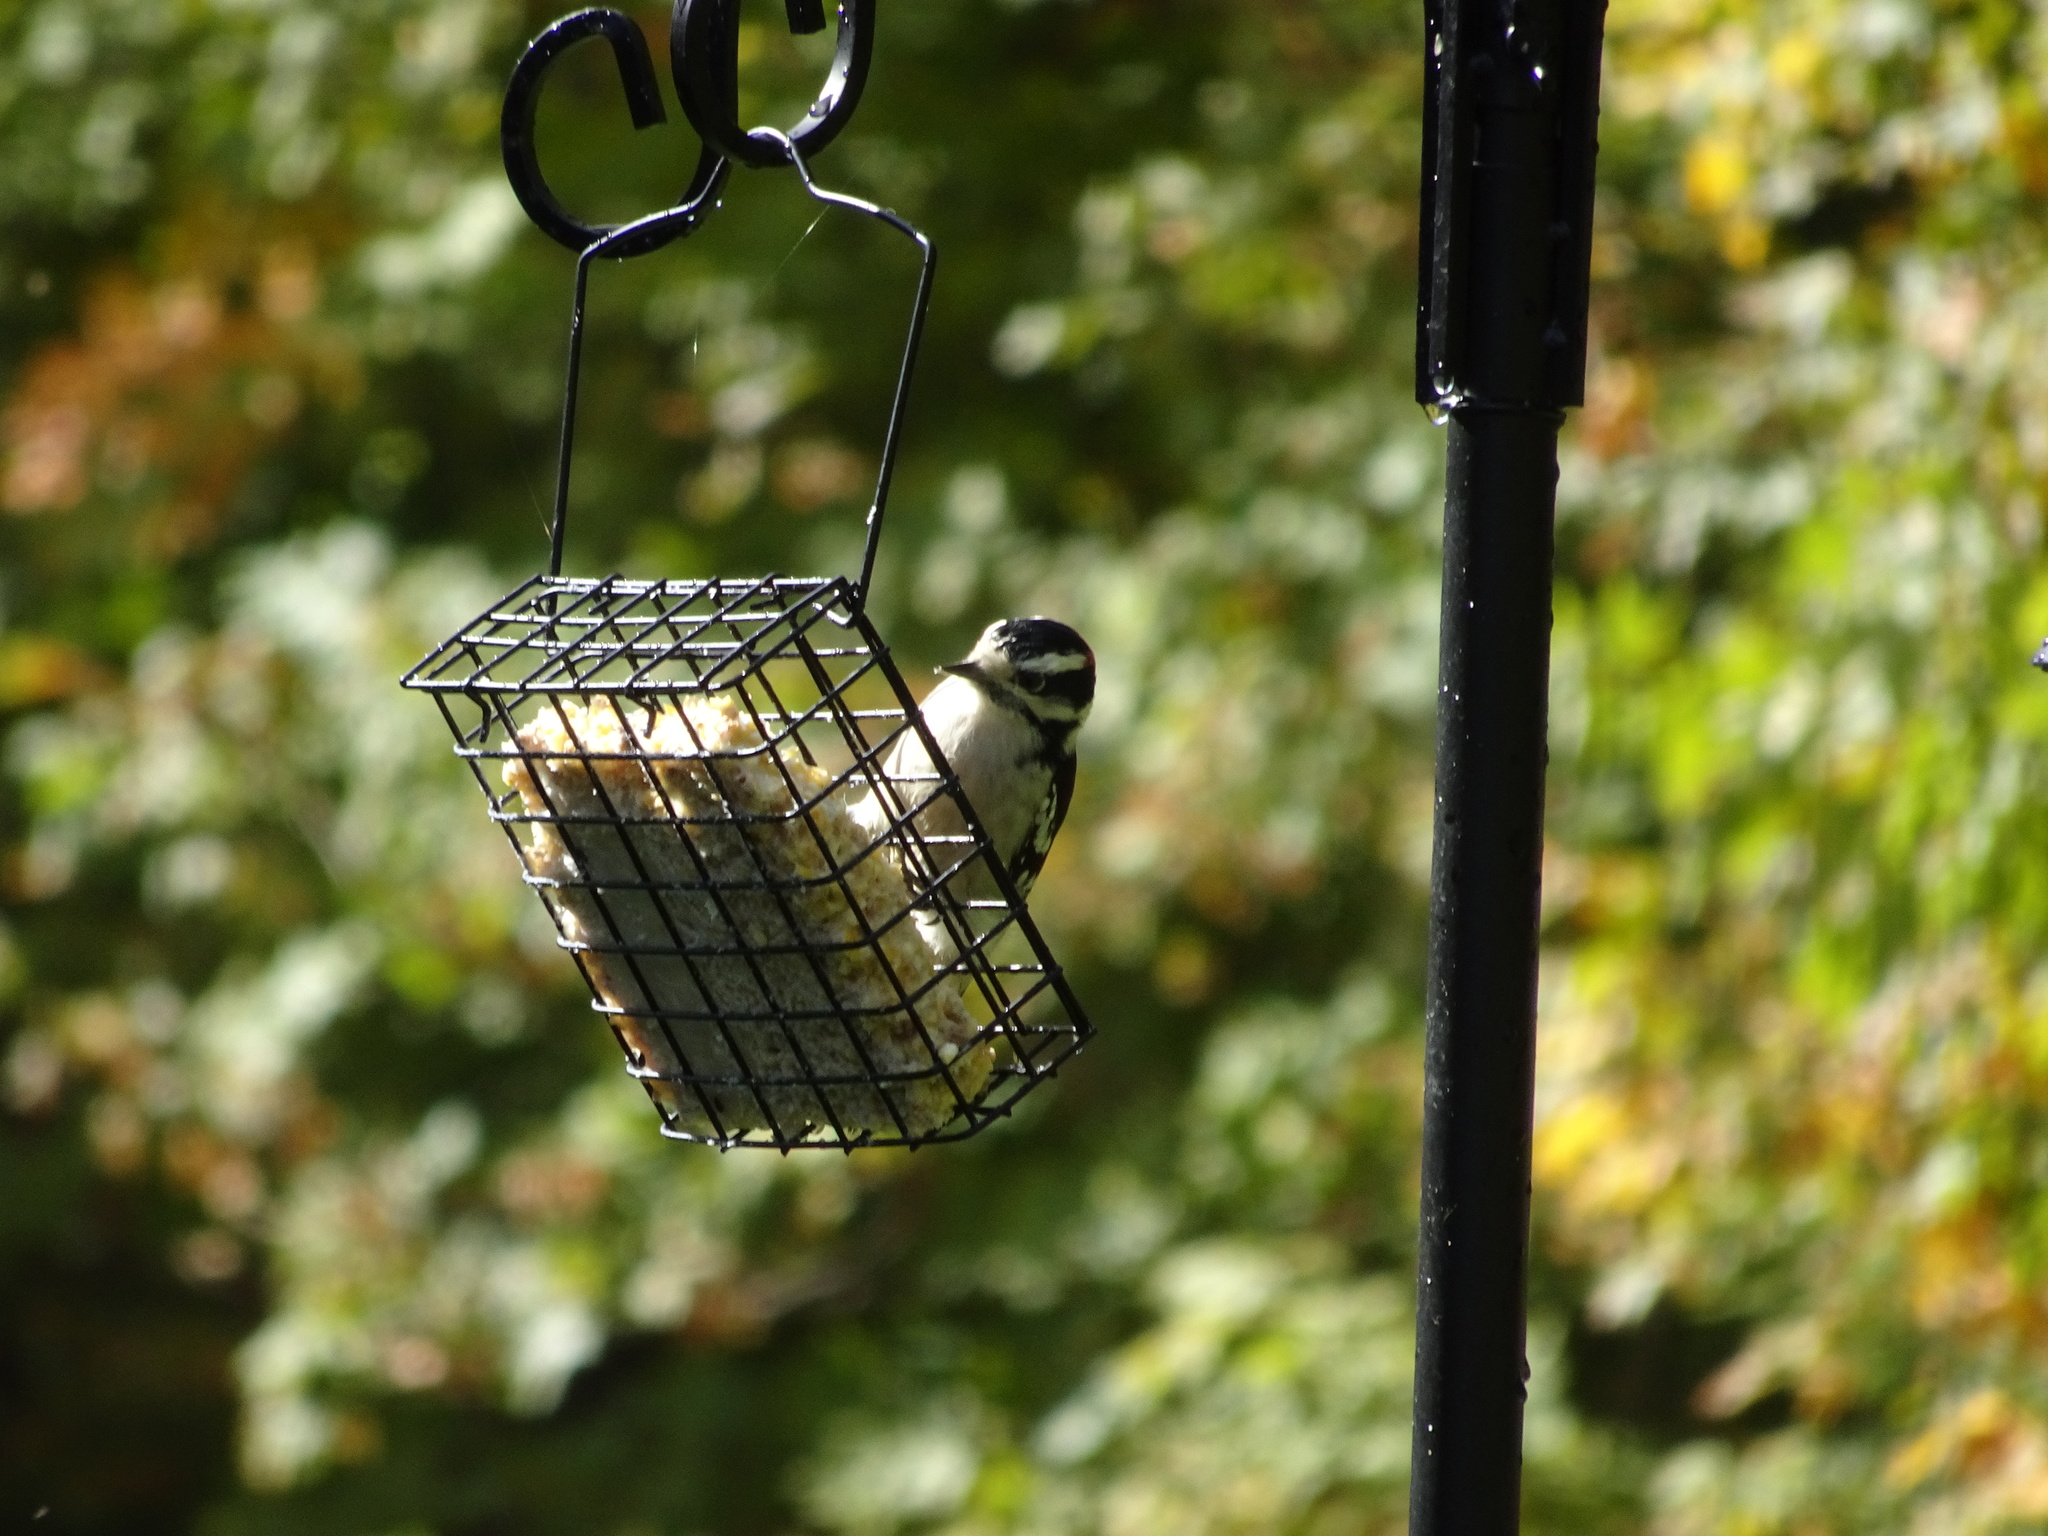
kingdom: Animalia
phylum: Chordata
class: Aves
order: Piciformes
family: Picidae
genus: Dryobates
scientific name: Dryobates pubescens
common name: Downy woodpecker
